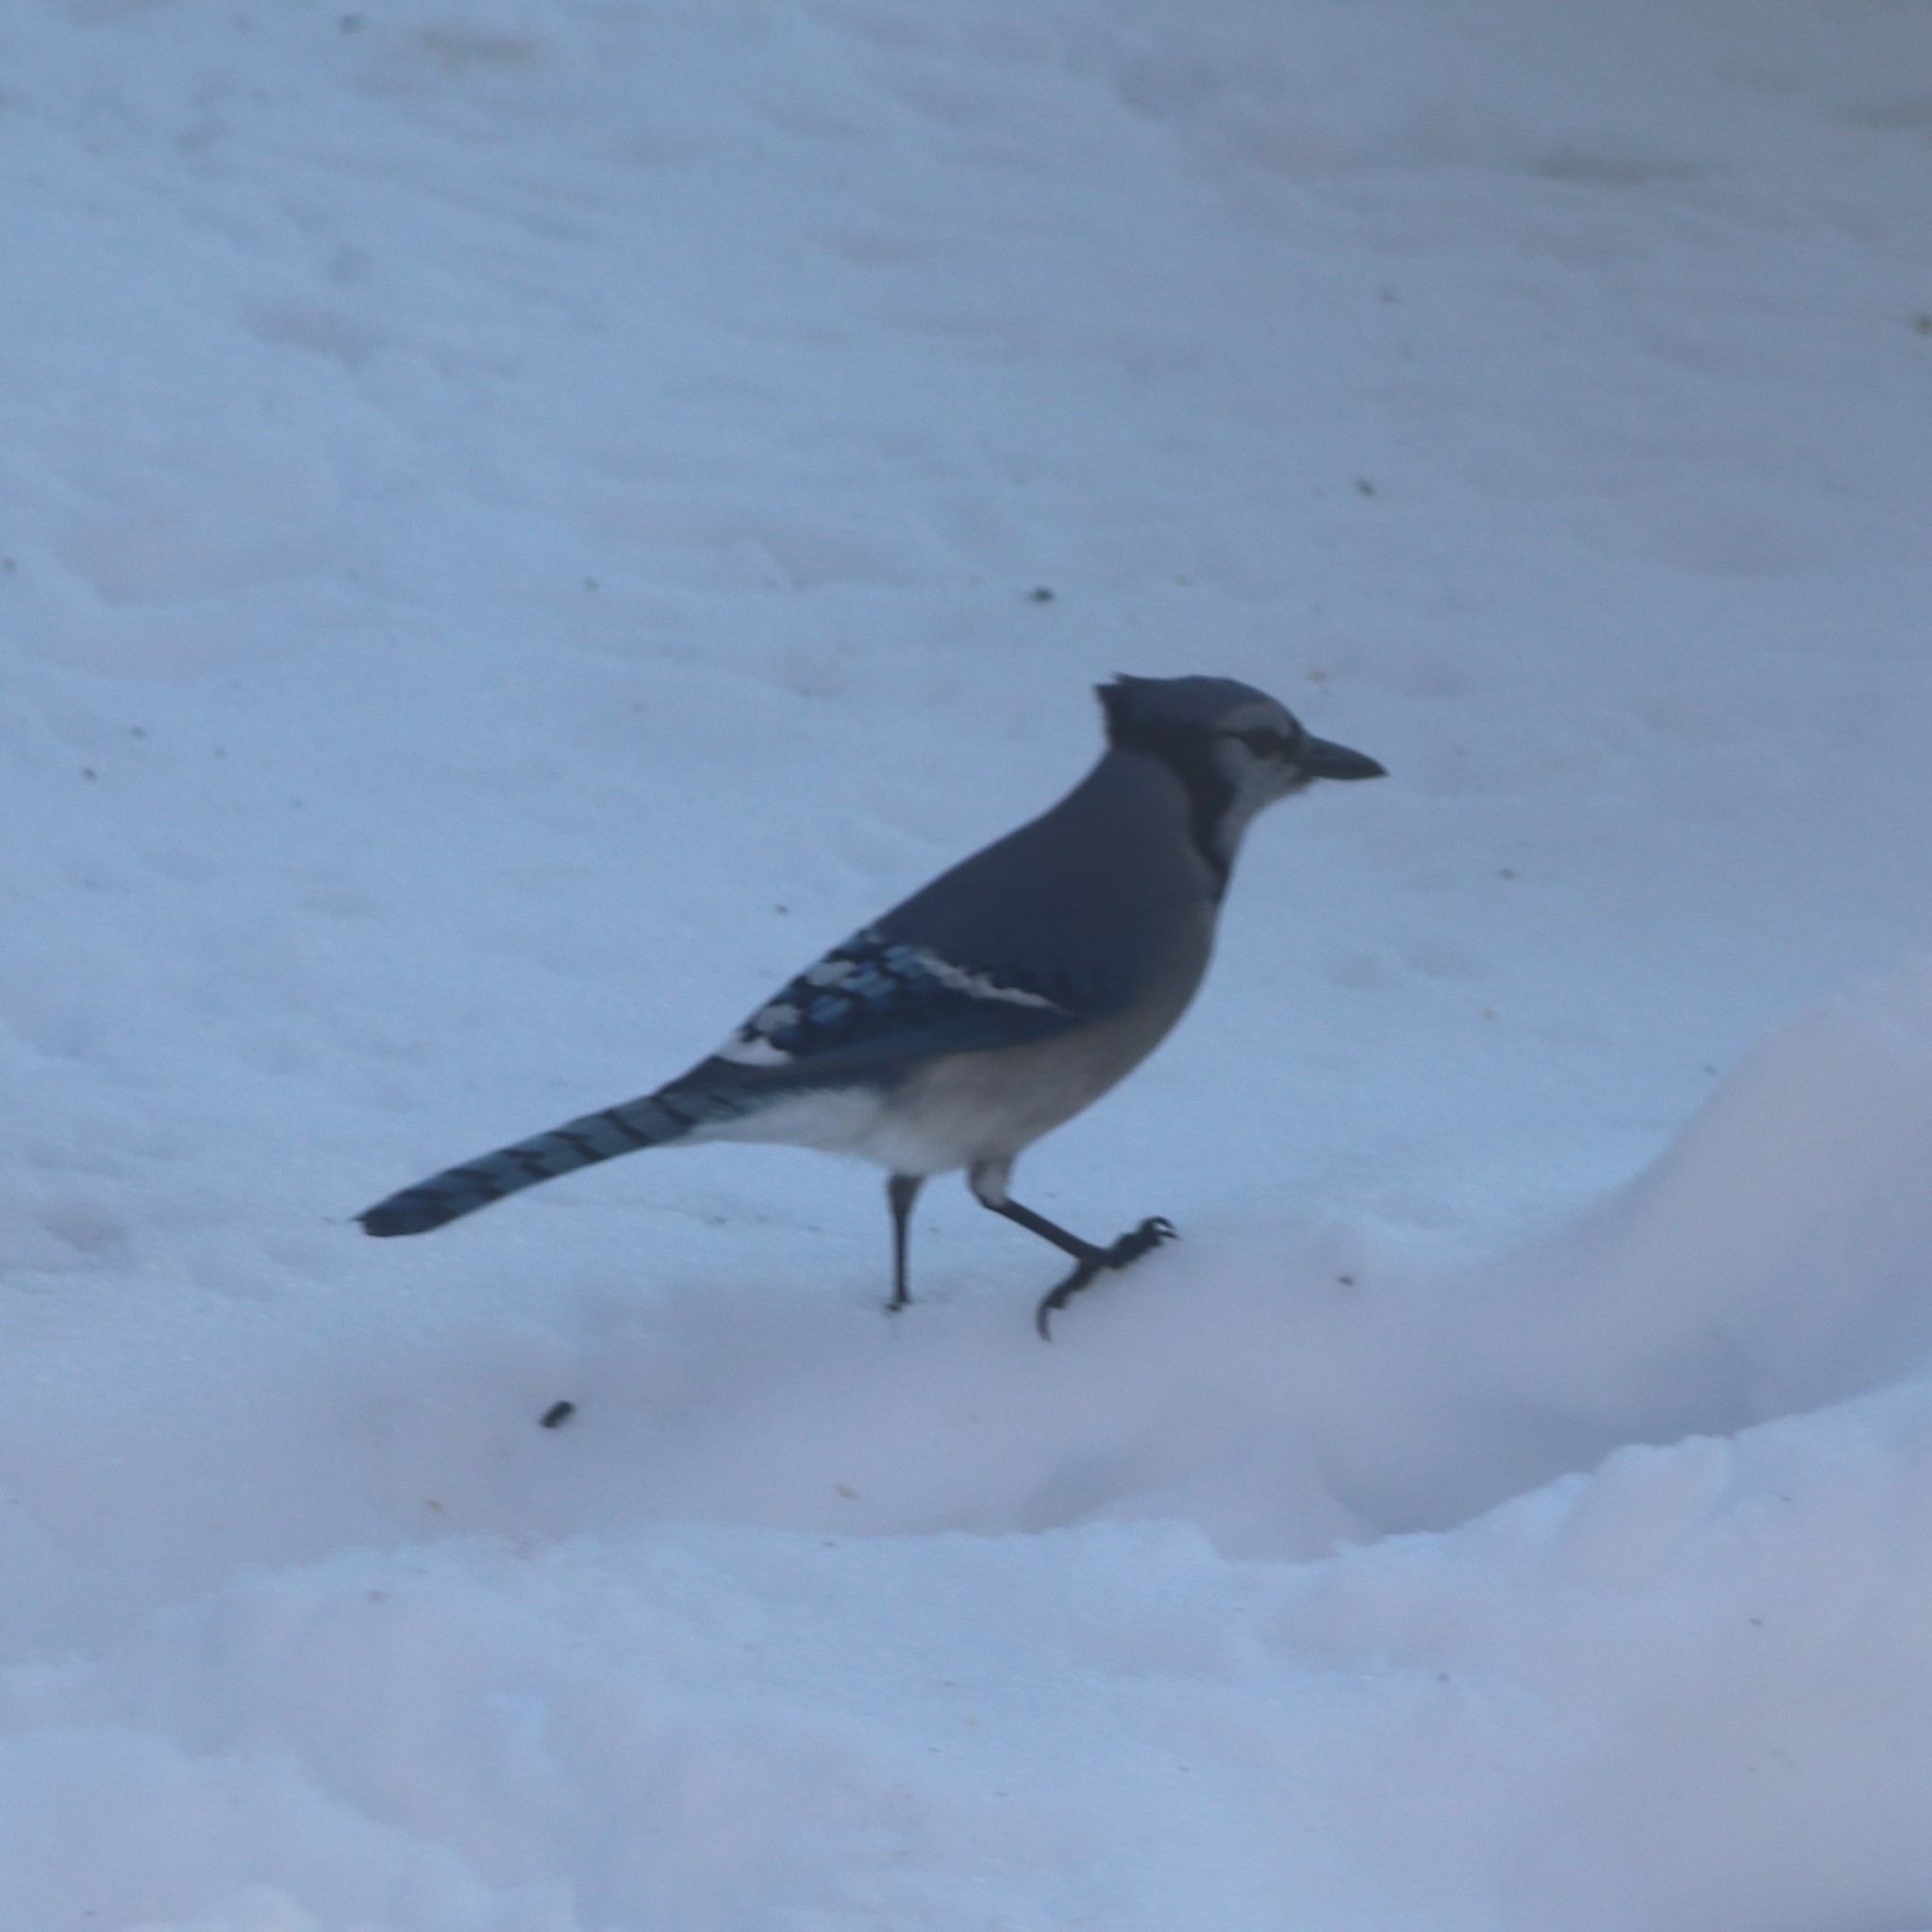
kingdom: Animalia
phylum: Chordata
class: Aves
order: Passeriformes
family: Corvidae
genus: Cyanocitta
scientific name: Cyanocitta cristata
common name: Blue jay
